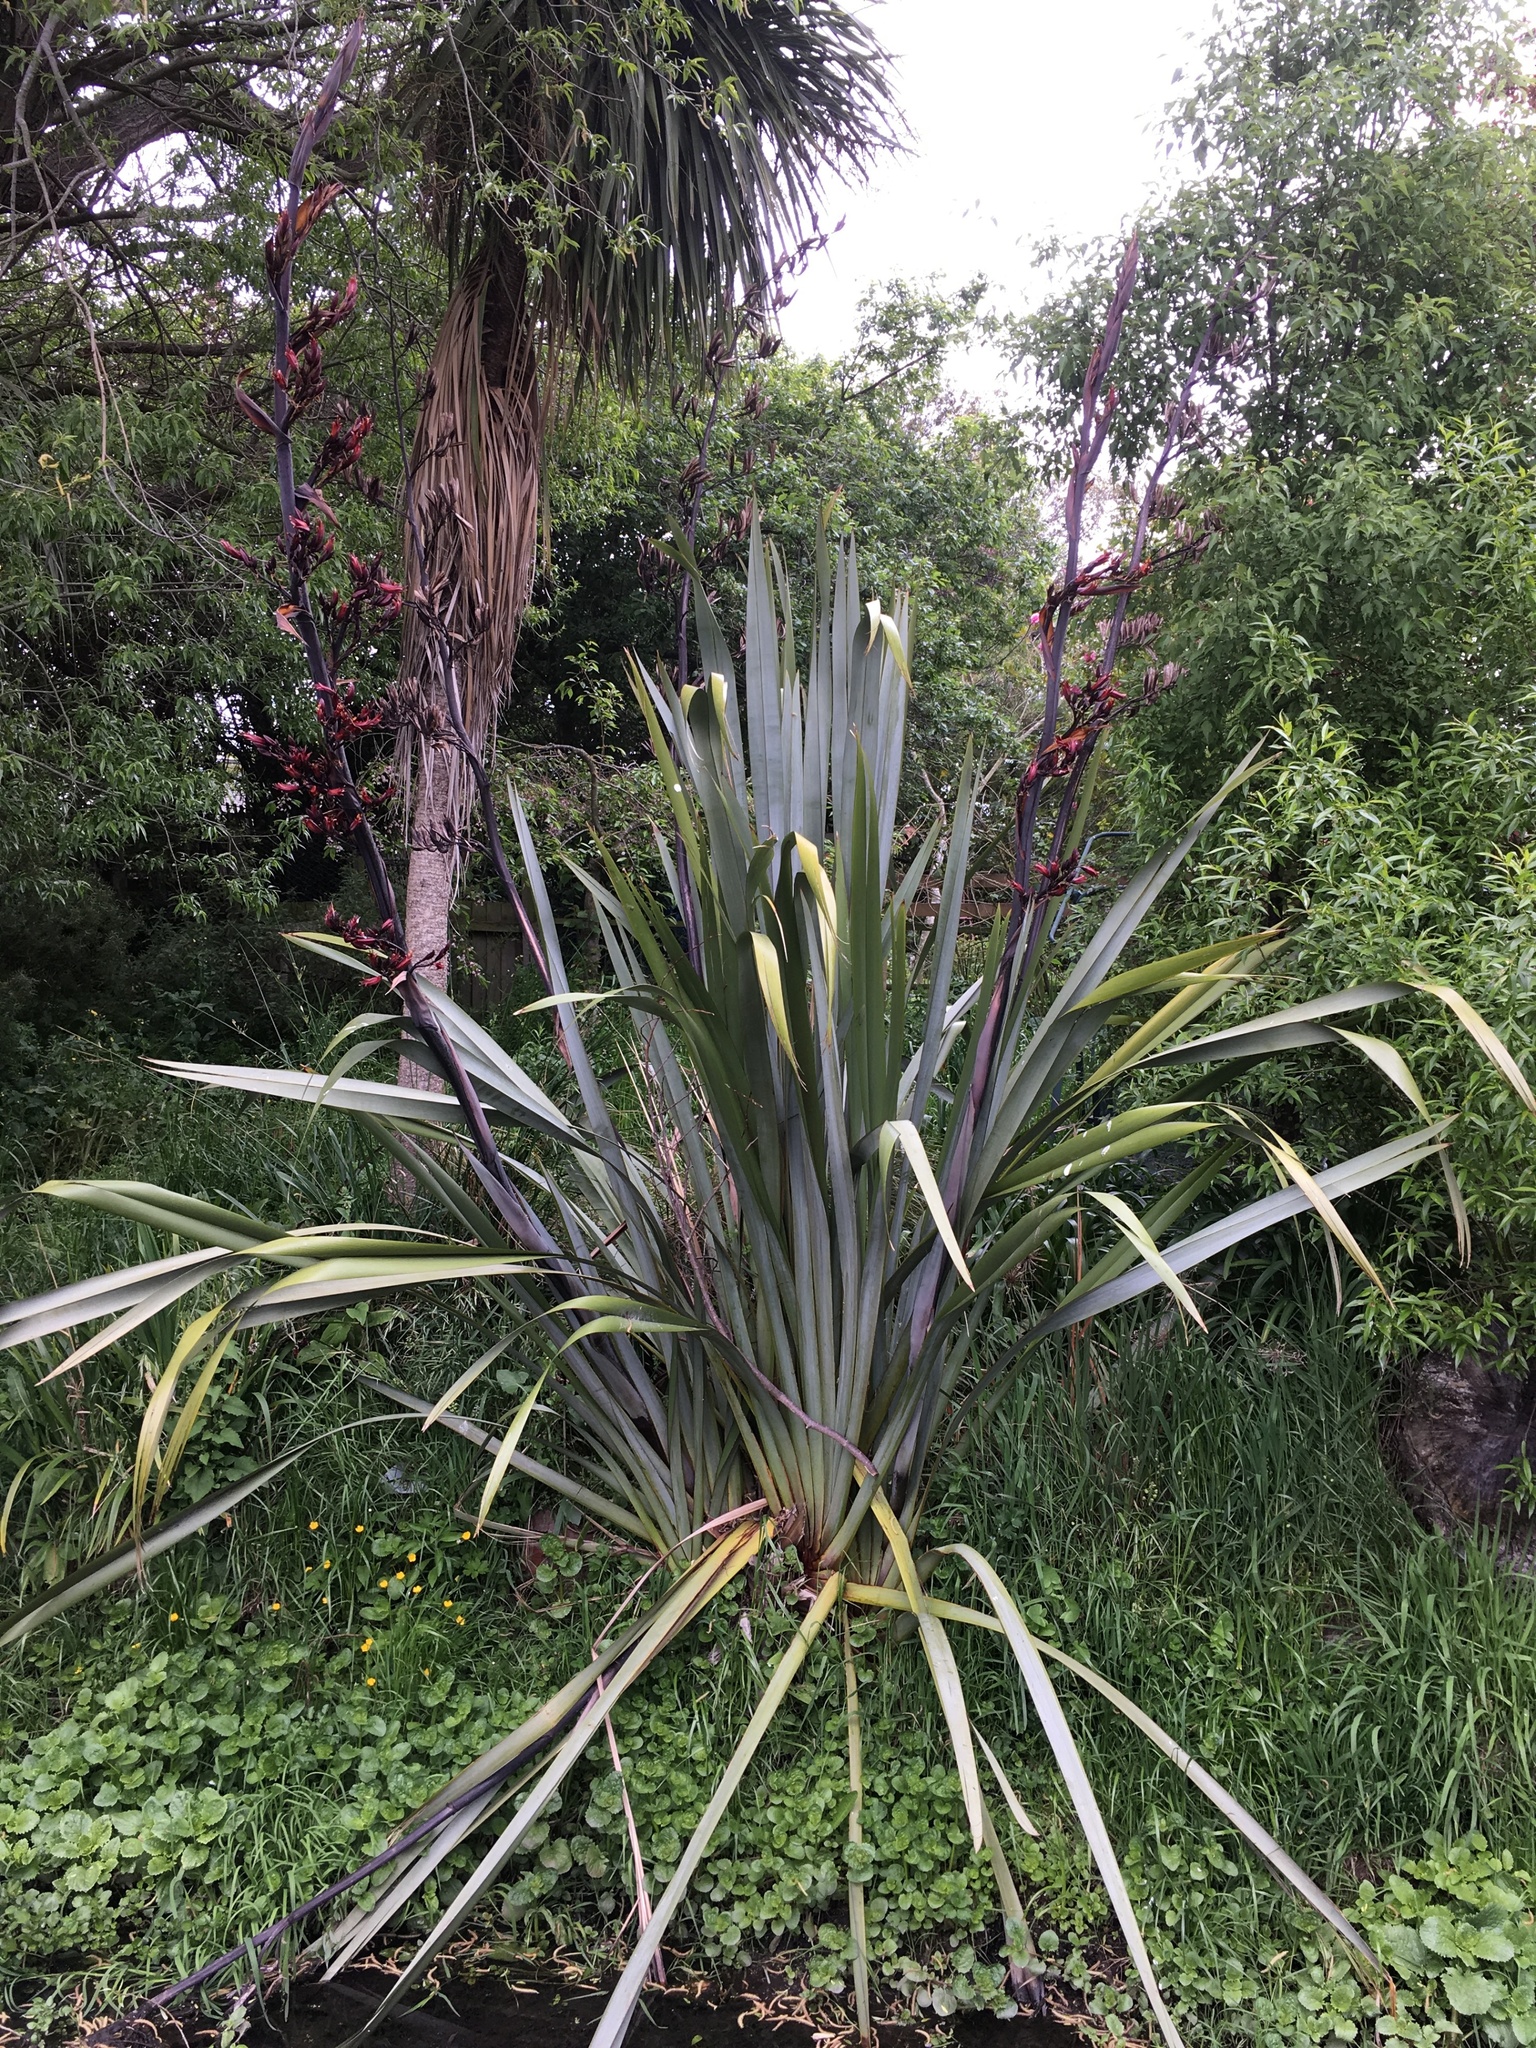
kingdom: Plantae
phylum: Tracheophyta
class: Liliopsida
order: Asparagales
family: Asphodelaceae
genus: Phormium
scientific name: Phormium tenax
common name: New zealand flax
